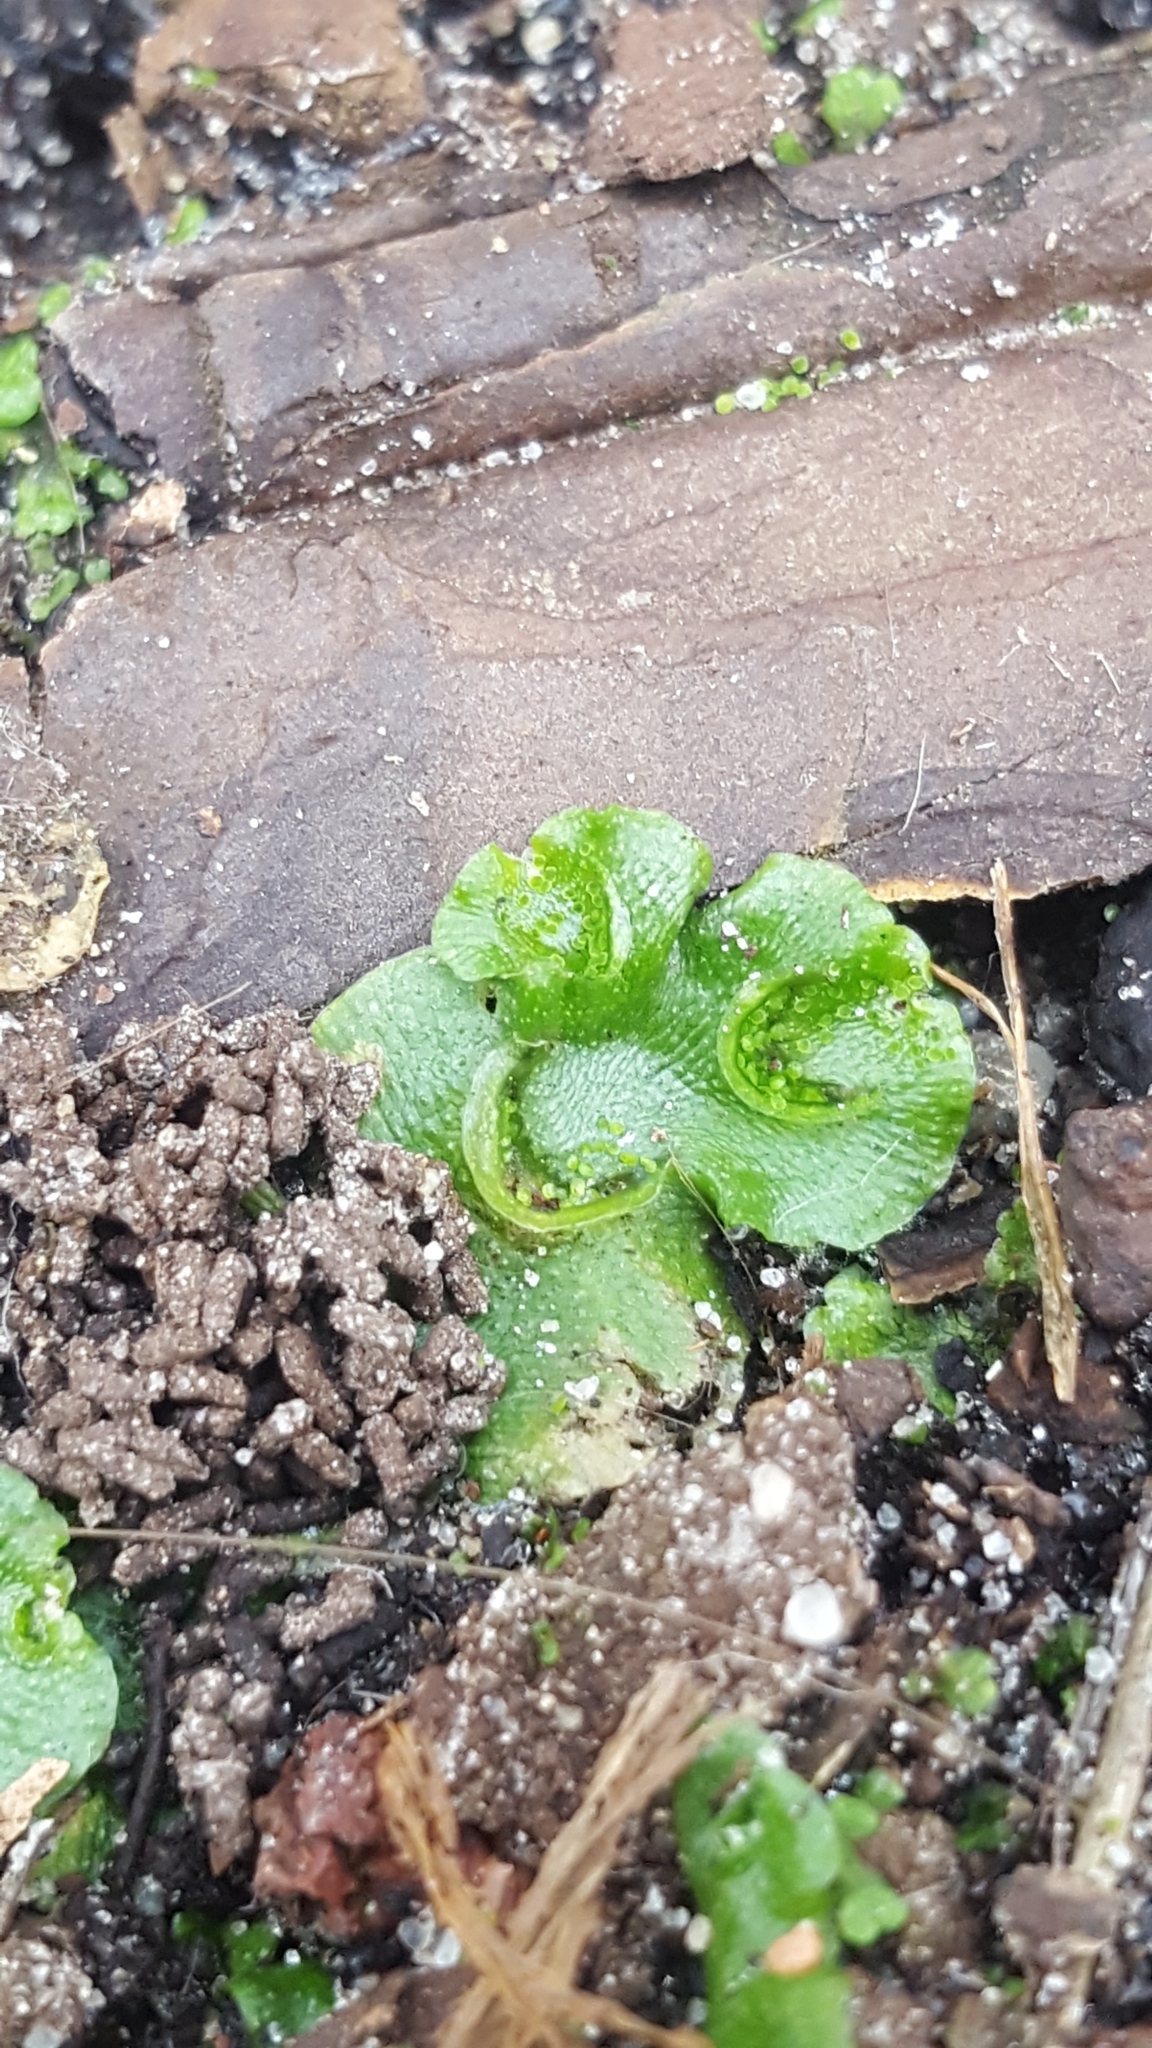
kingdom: Plantae
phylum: Marchantiophyta
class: Marchantiopsida
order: Lunulariales
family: Lunulariaceae
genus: Lunularia
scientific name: Lunularia cruciata
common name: Crescent-cup liverwort
